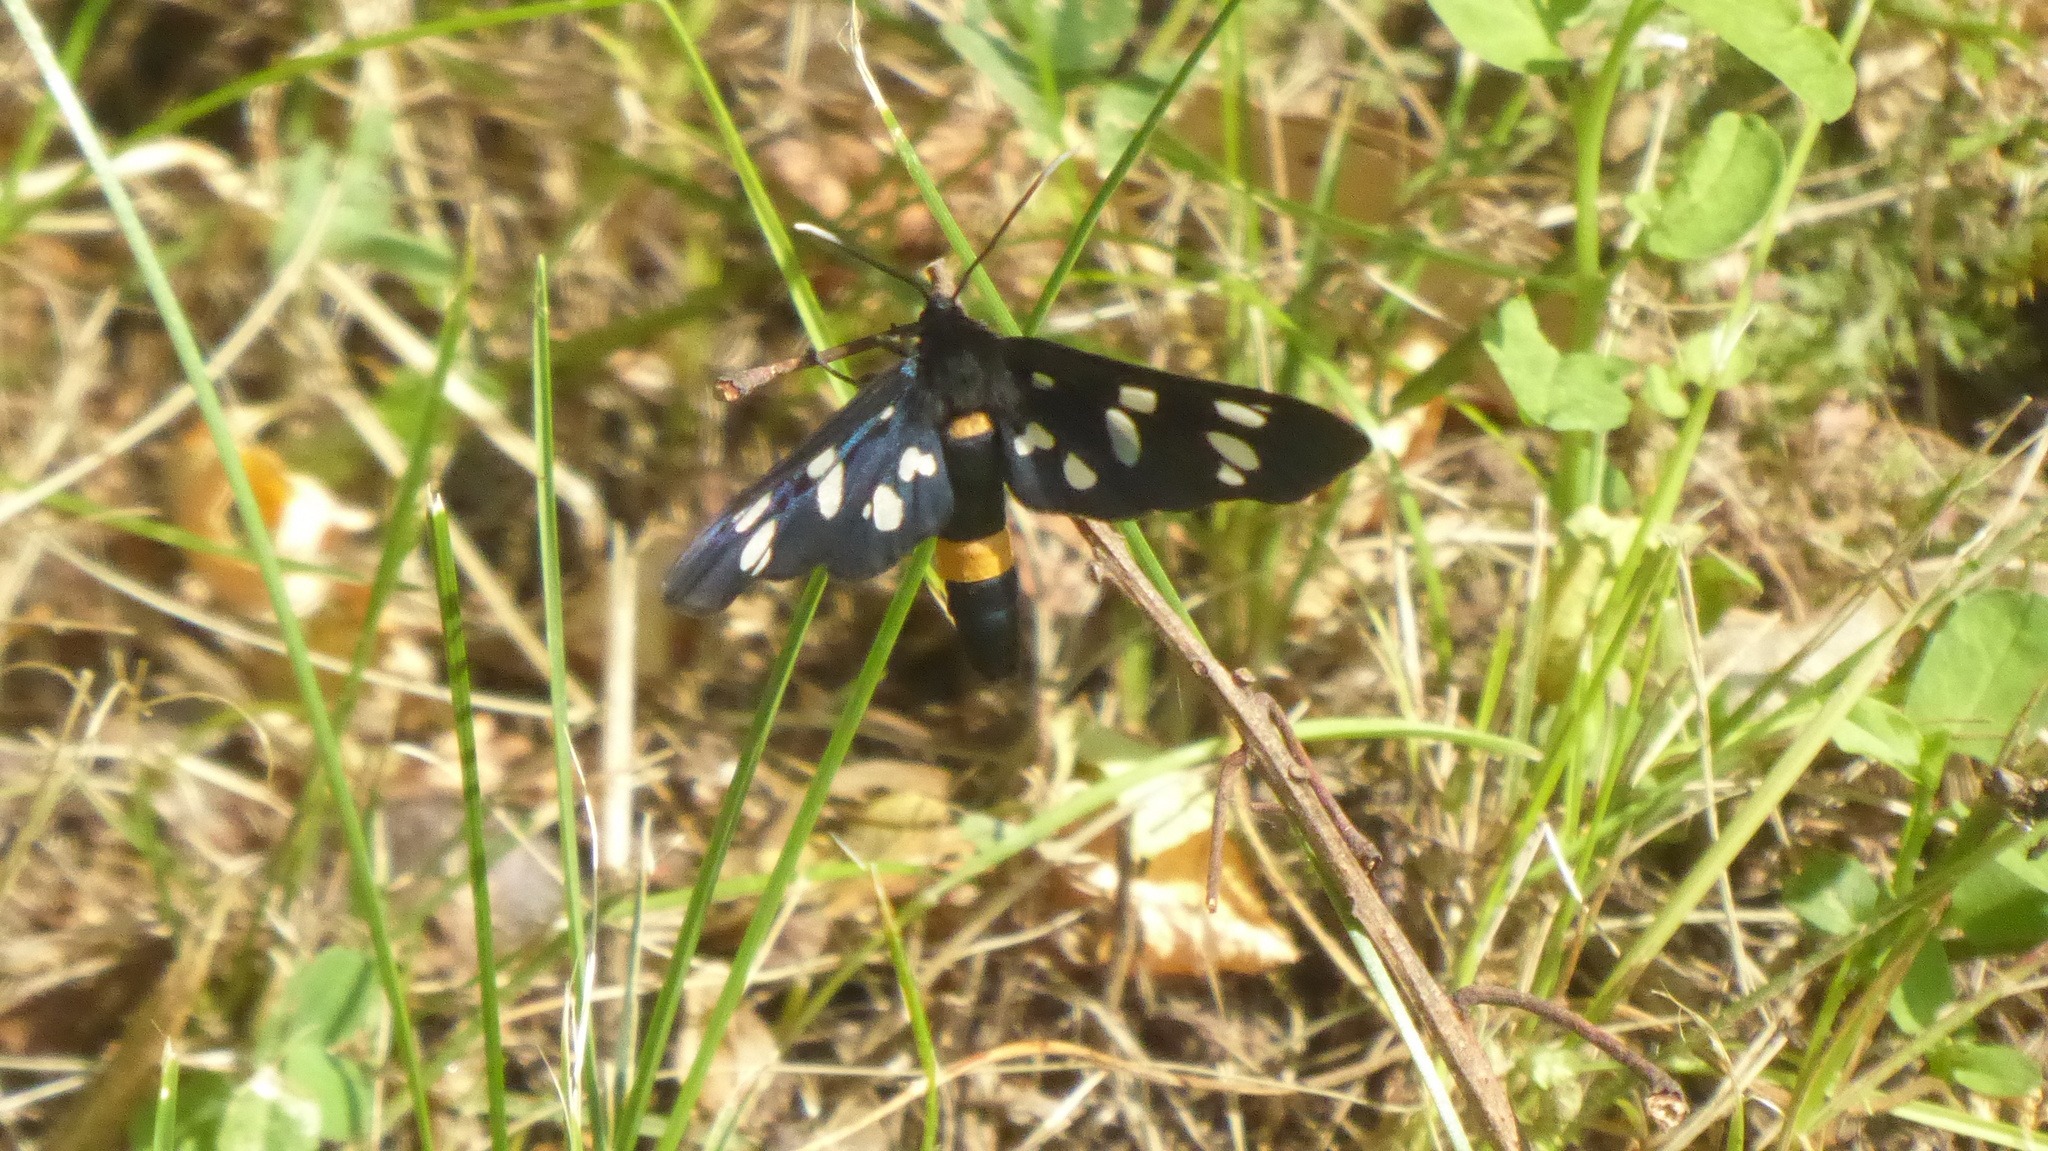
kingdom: Animalia
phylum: Arthropoda
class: Insecta
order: Lepidoptera
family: Erebidae
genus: Amata
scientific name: Amata phegea
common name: Nine-spotted
